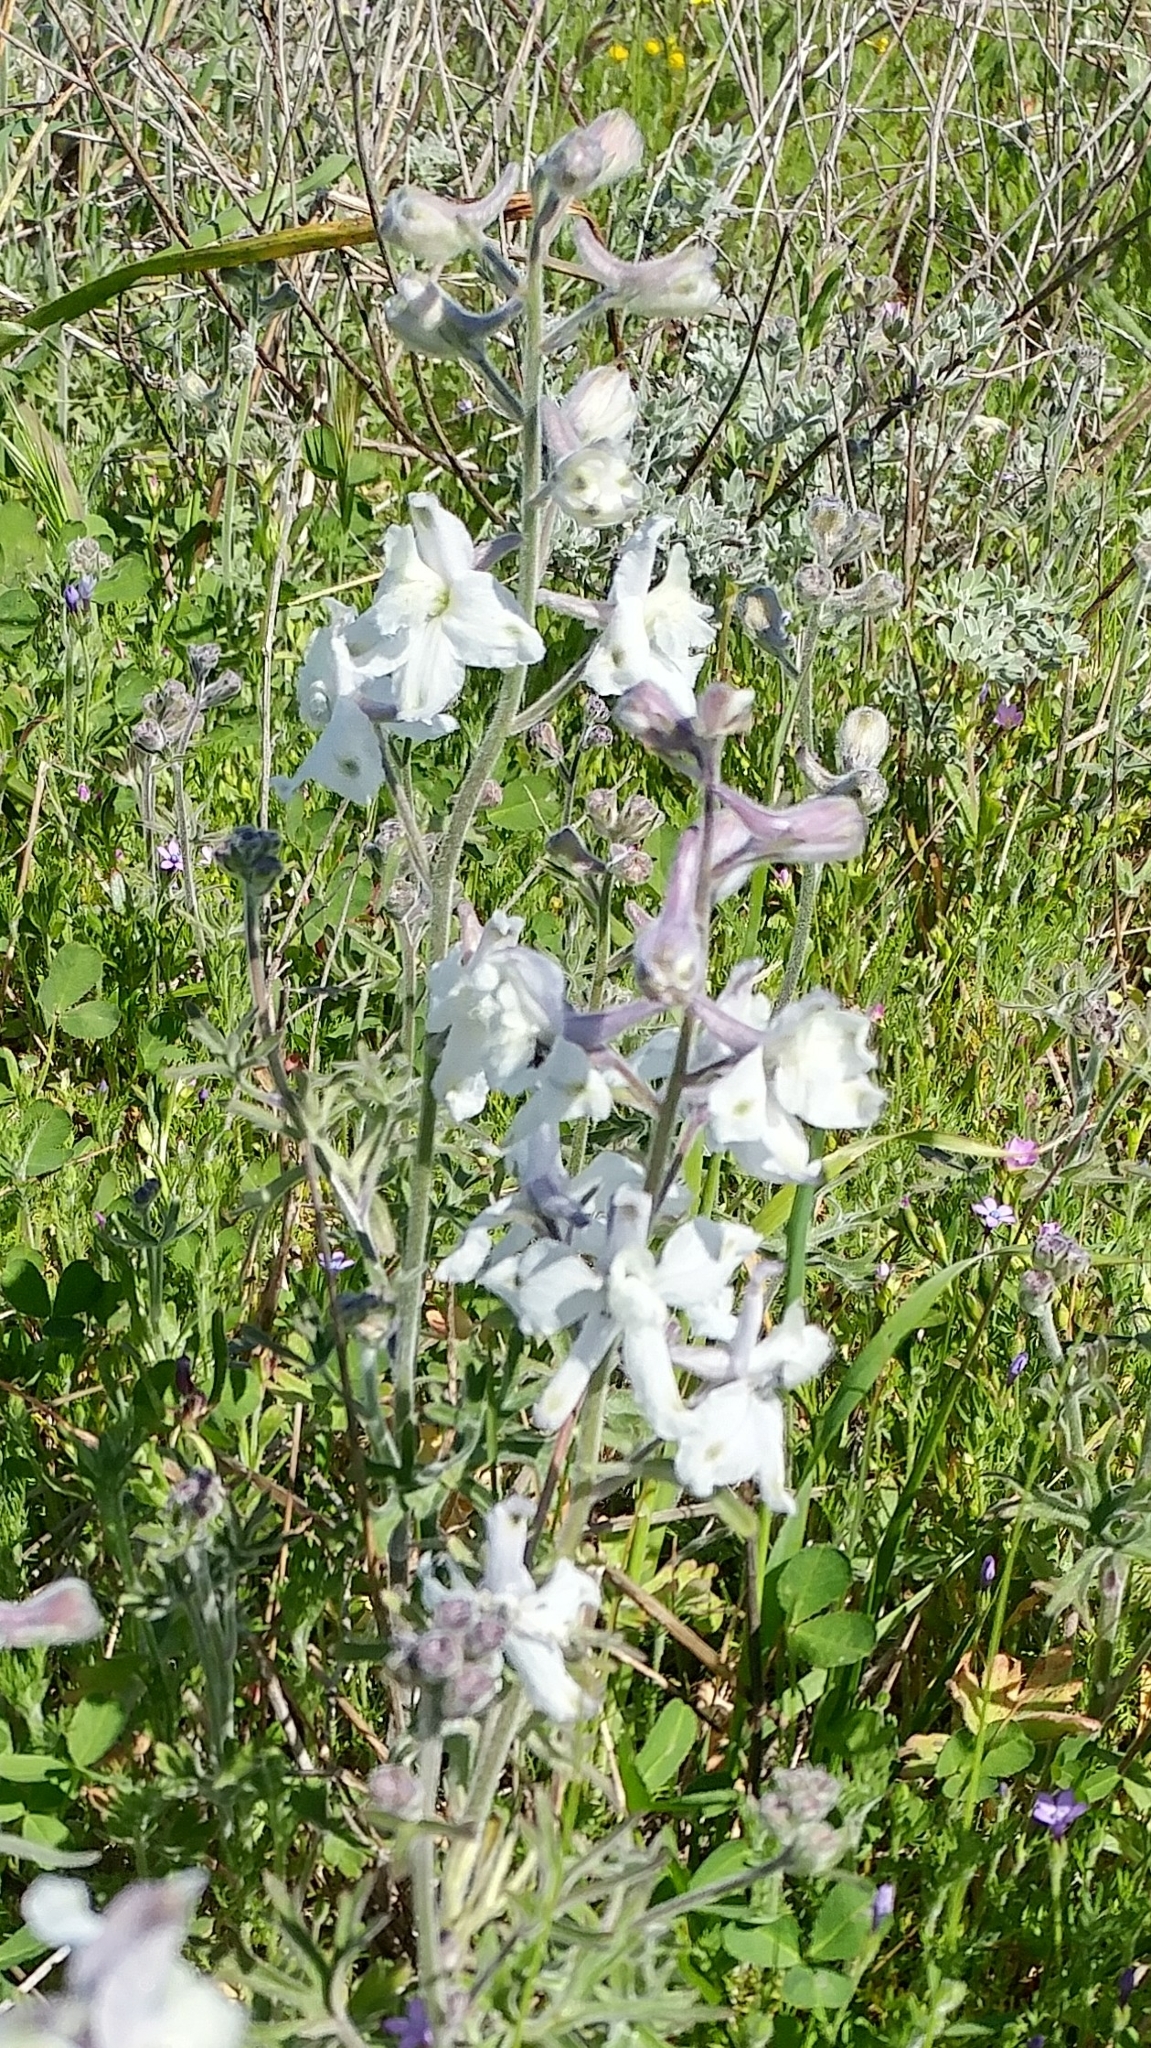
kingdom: Plantae
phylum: Tracheophyta
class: Magnoliopsida
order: Ranunculales
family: Ranunculaceae
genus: Delphinium
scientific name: Delphinium variegatum
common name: Royal larkspur
